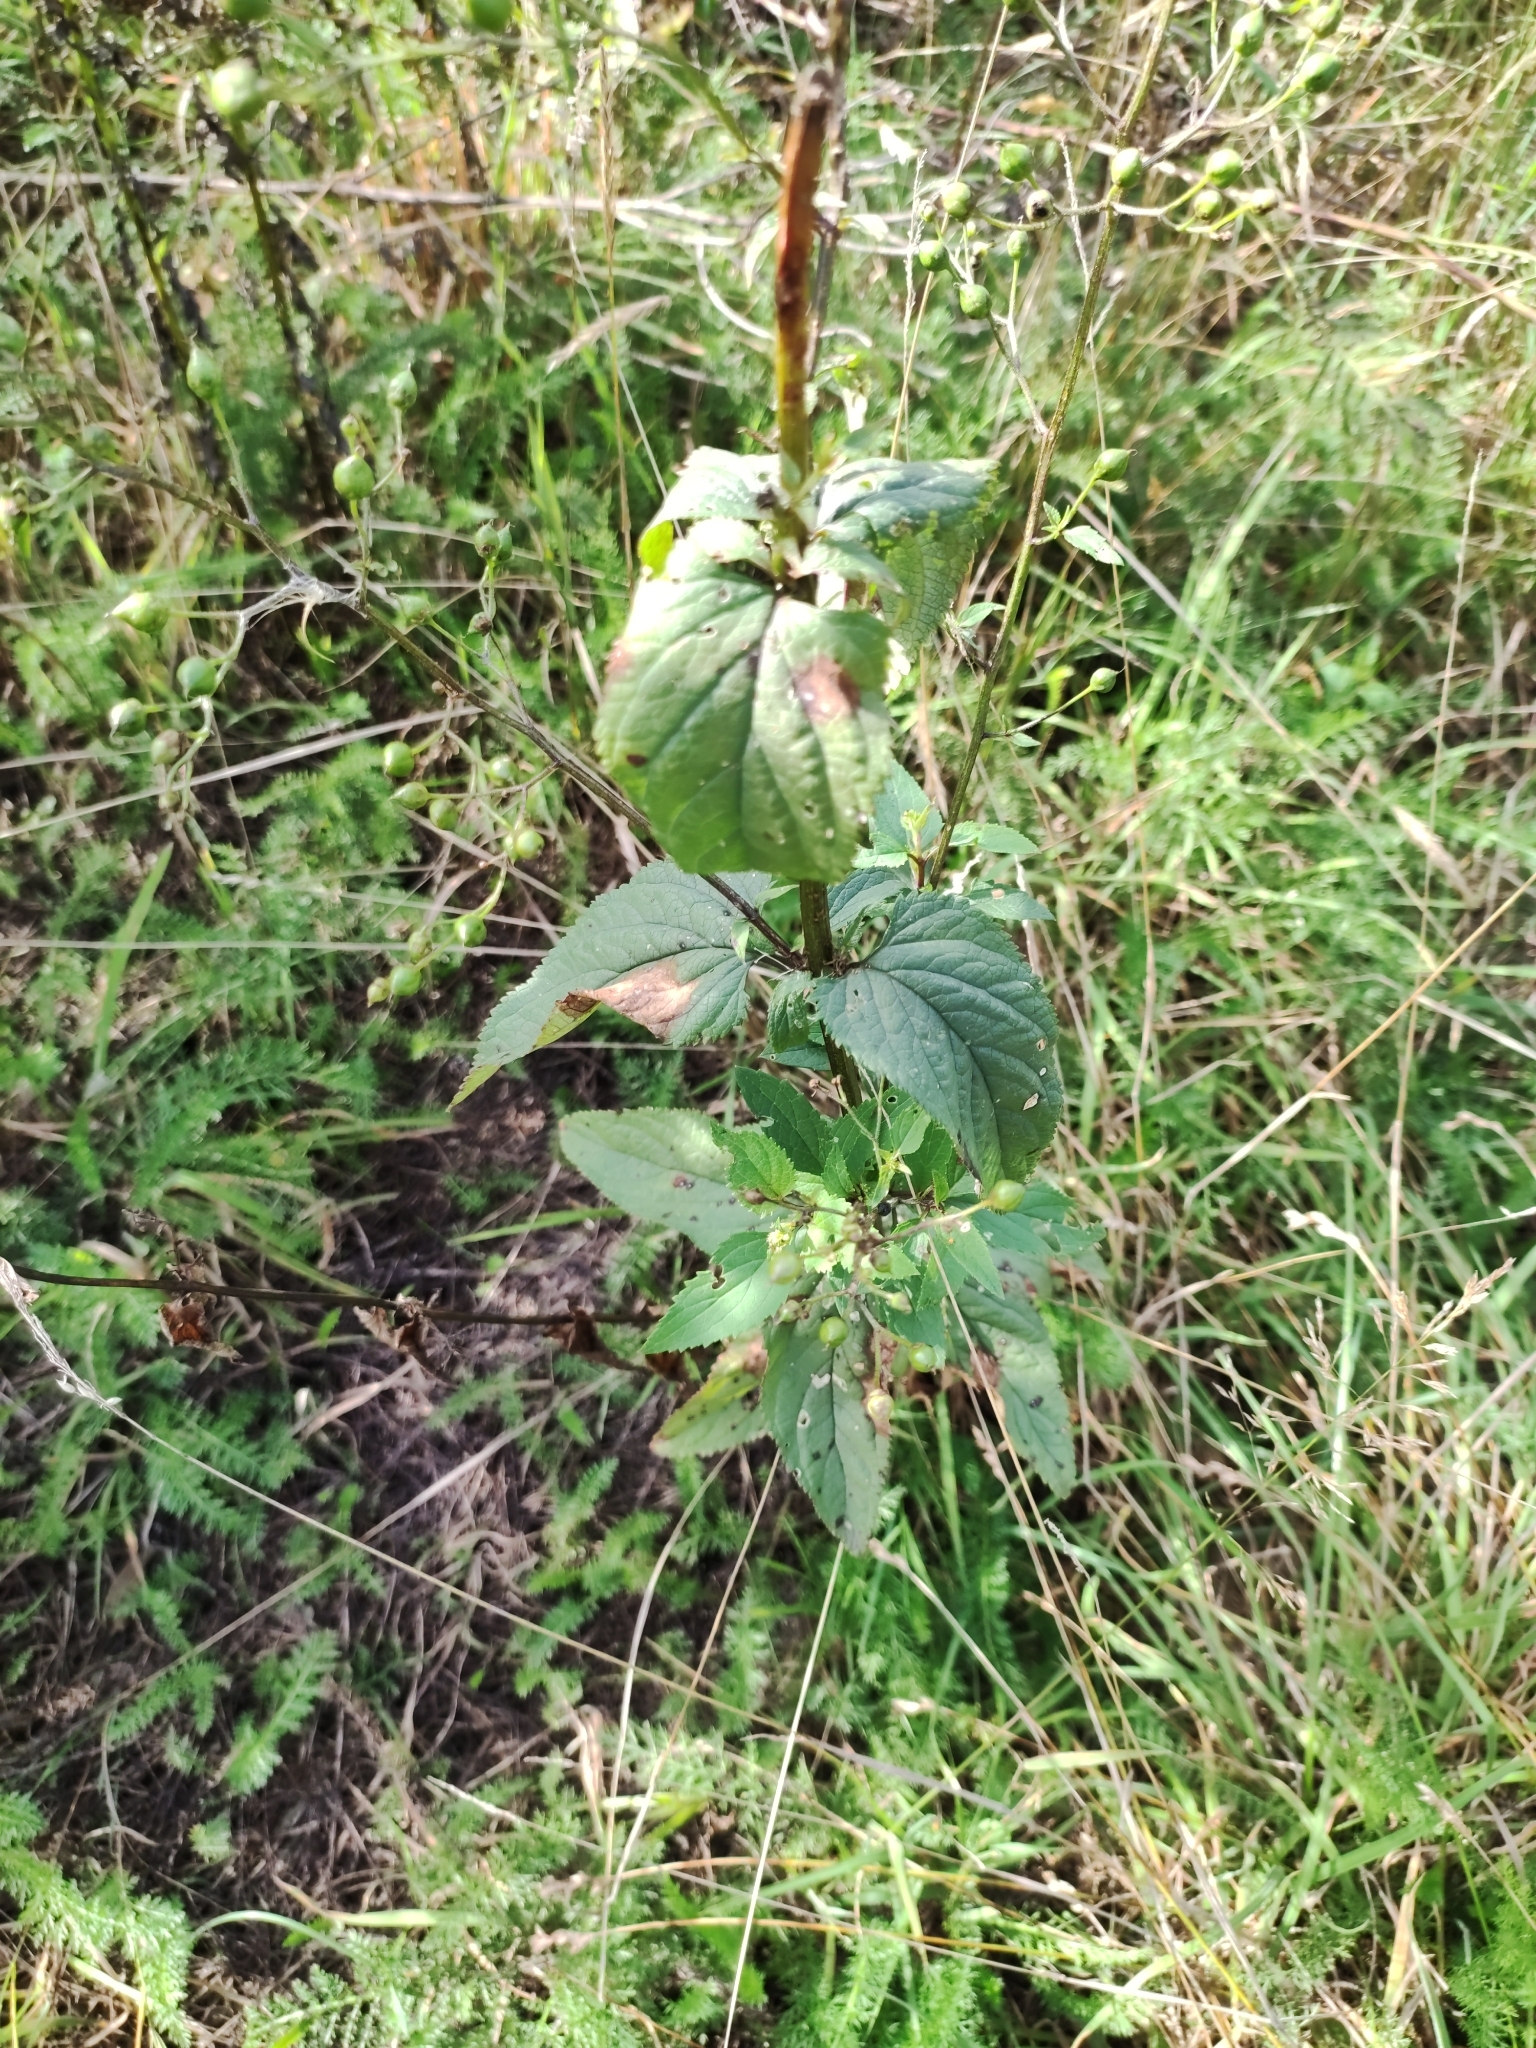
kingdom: Plantae
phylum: Tracheophyta
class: Magnoliopsida
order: Lamiales
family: Scrophulariaceae
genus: Scrophularia
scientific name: Scrophularia nodosa
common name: Common figwort
